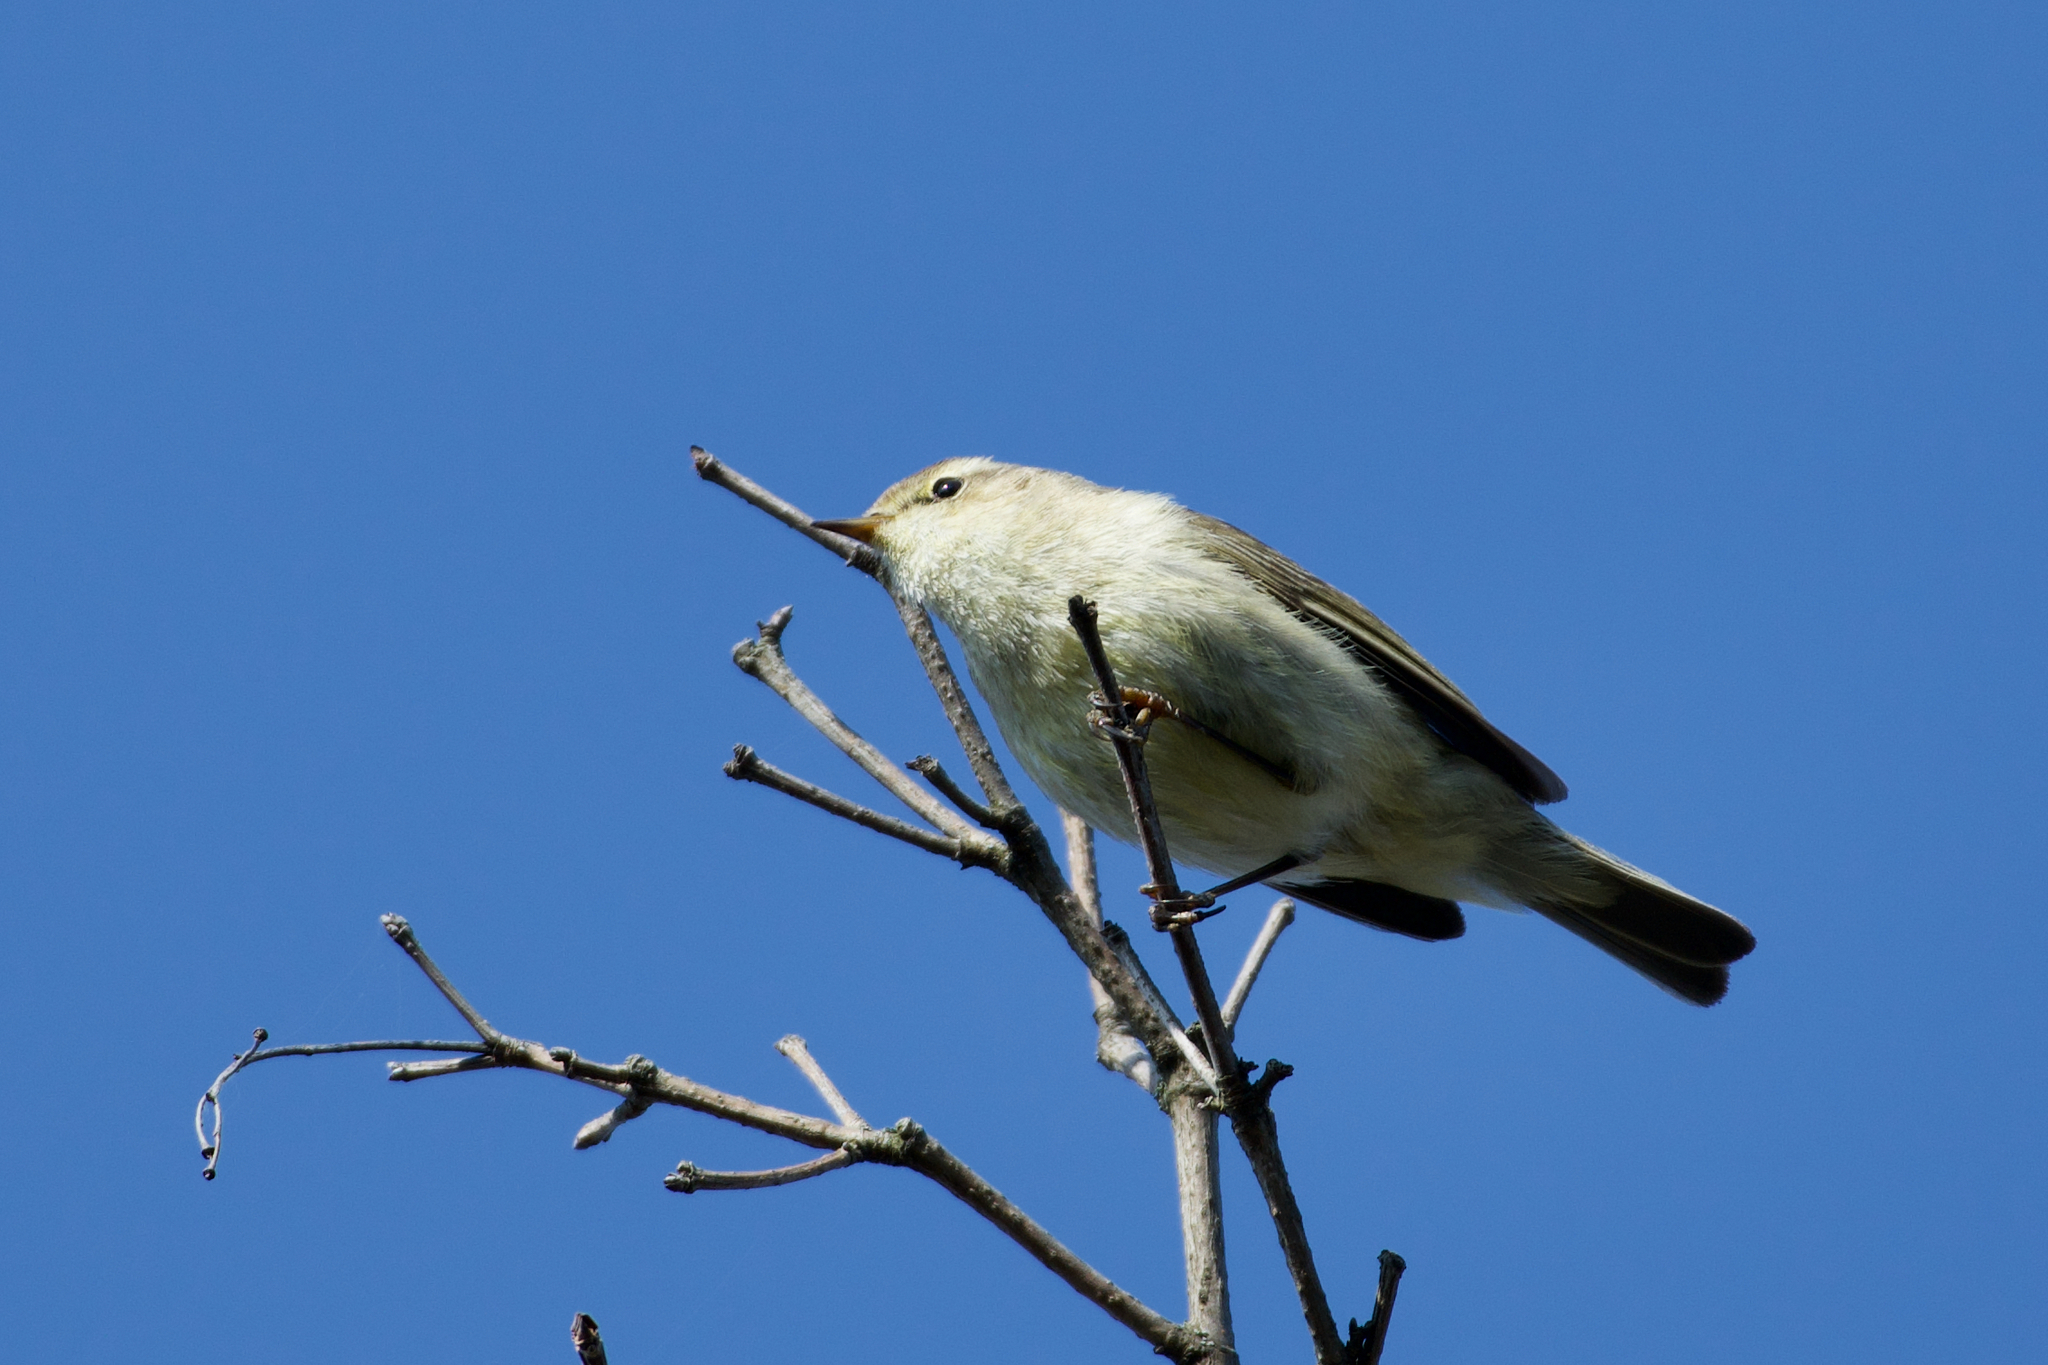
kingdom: Animalia
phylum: Chordata
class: Aves
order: Passeriformes
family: Phylloscopidae
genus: Phylloscopus
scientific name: Phylloscopus collybita
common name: Common chiffchaff
